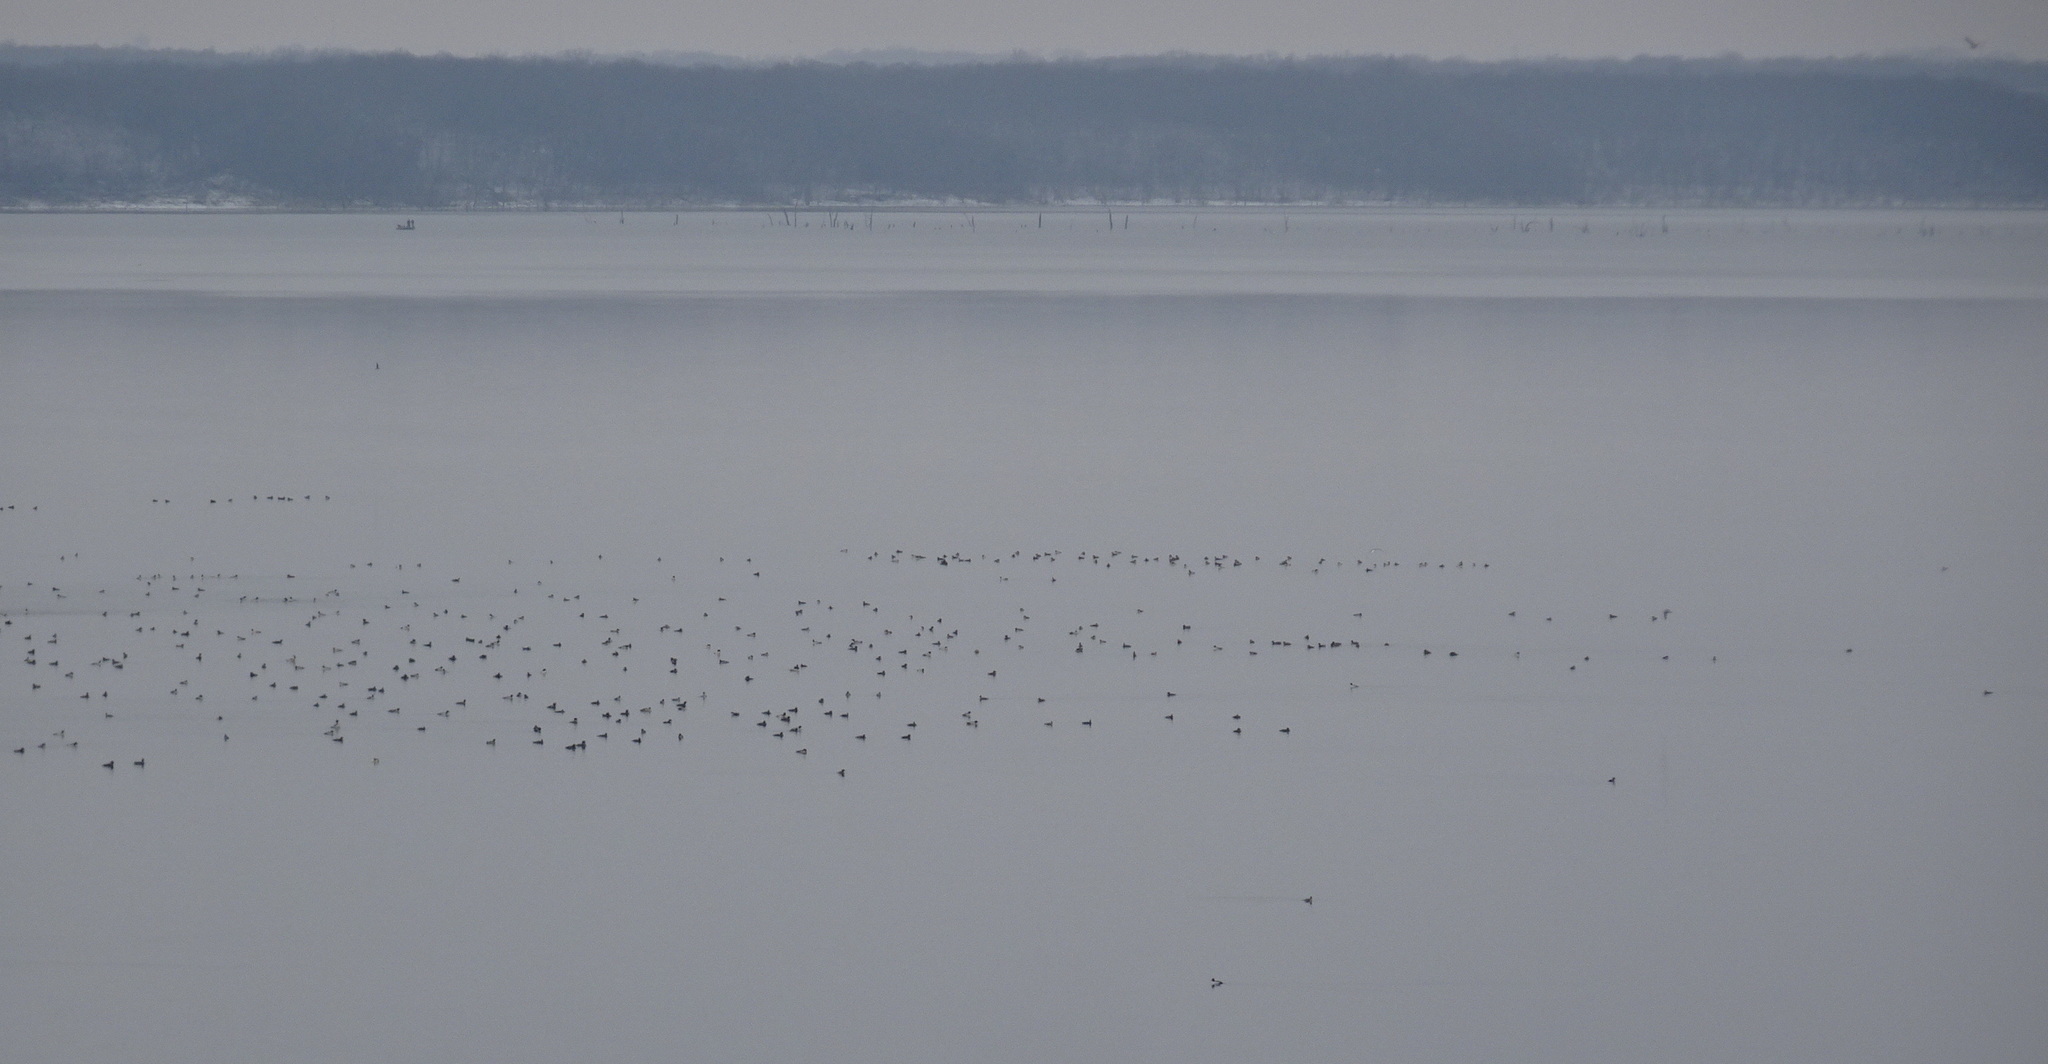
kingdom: Animalia
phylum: Chordata
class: Aves
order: Anseriformes
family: Anatidae
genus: Mergus
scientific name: Mergus merganser
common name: Common merganser
